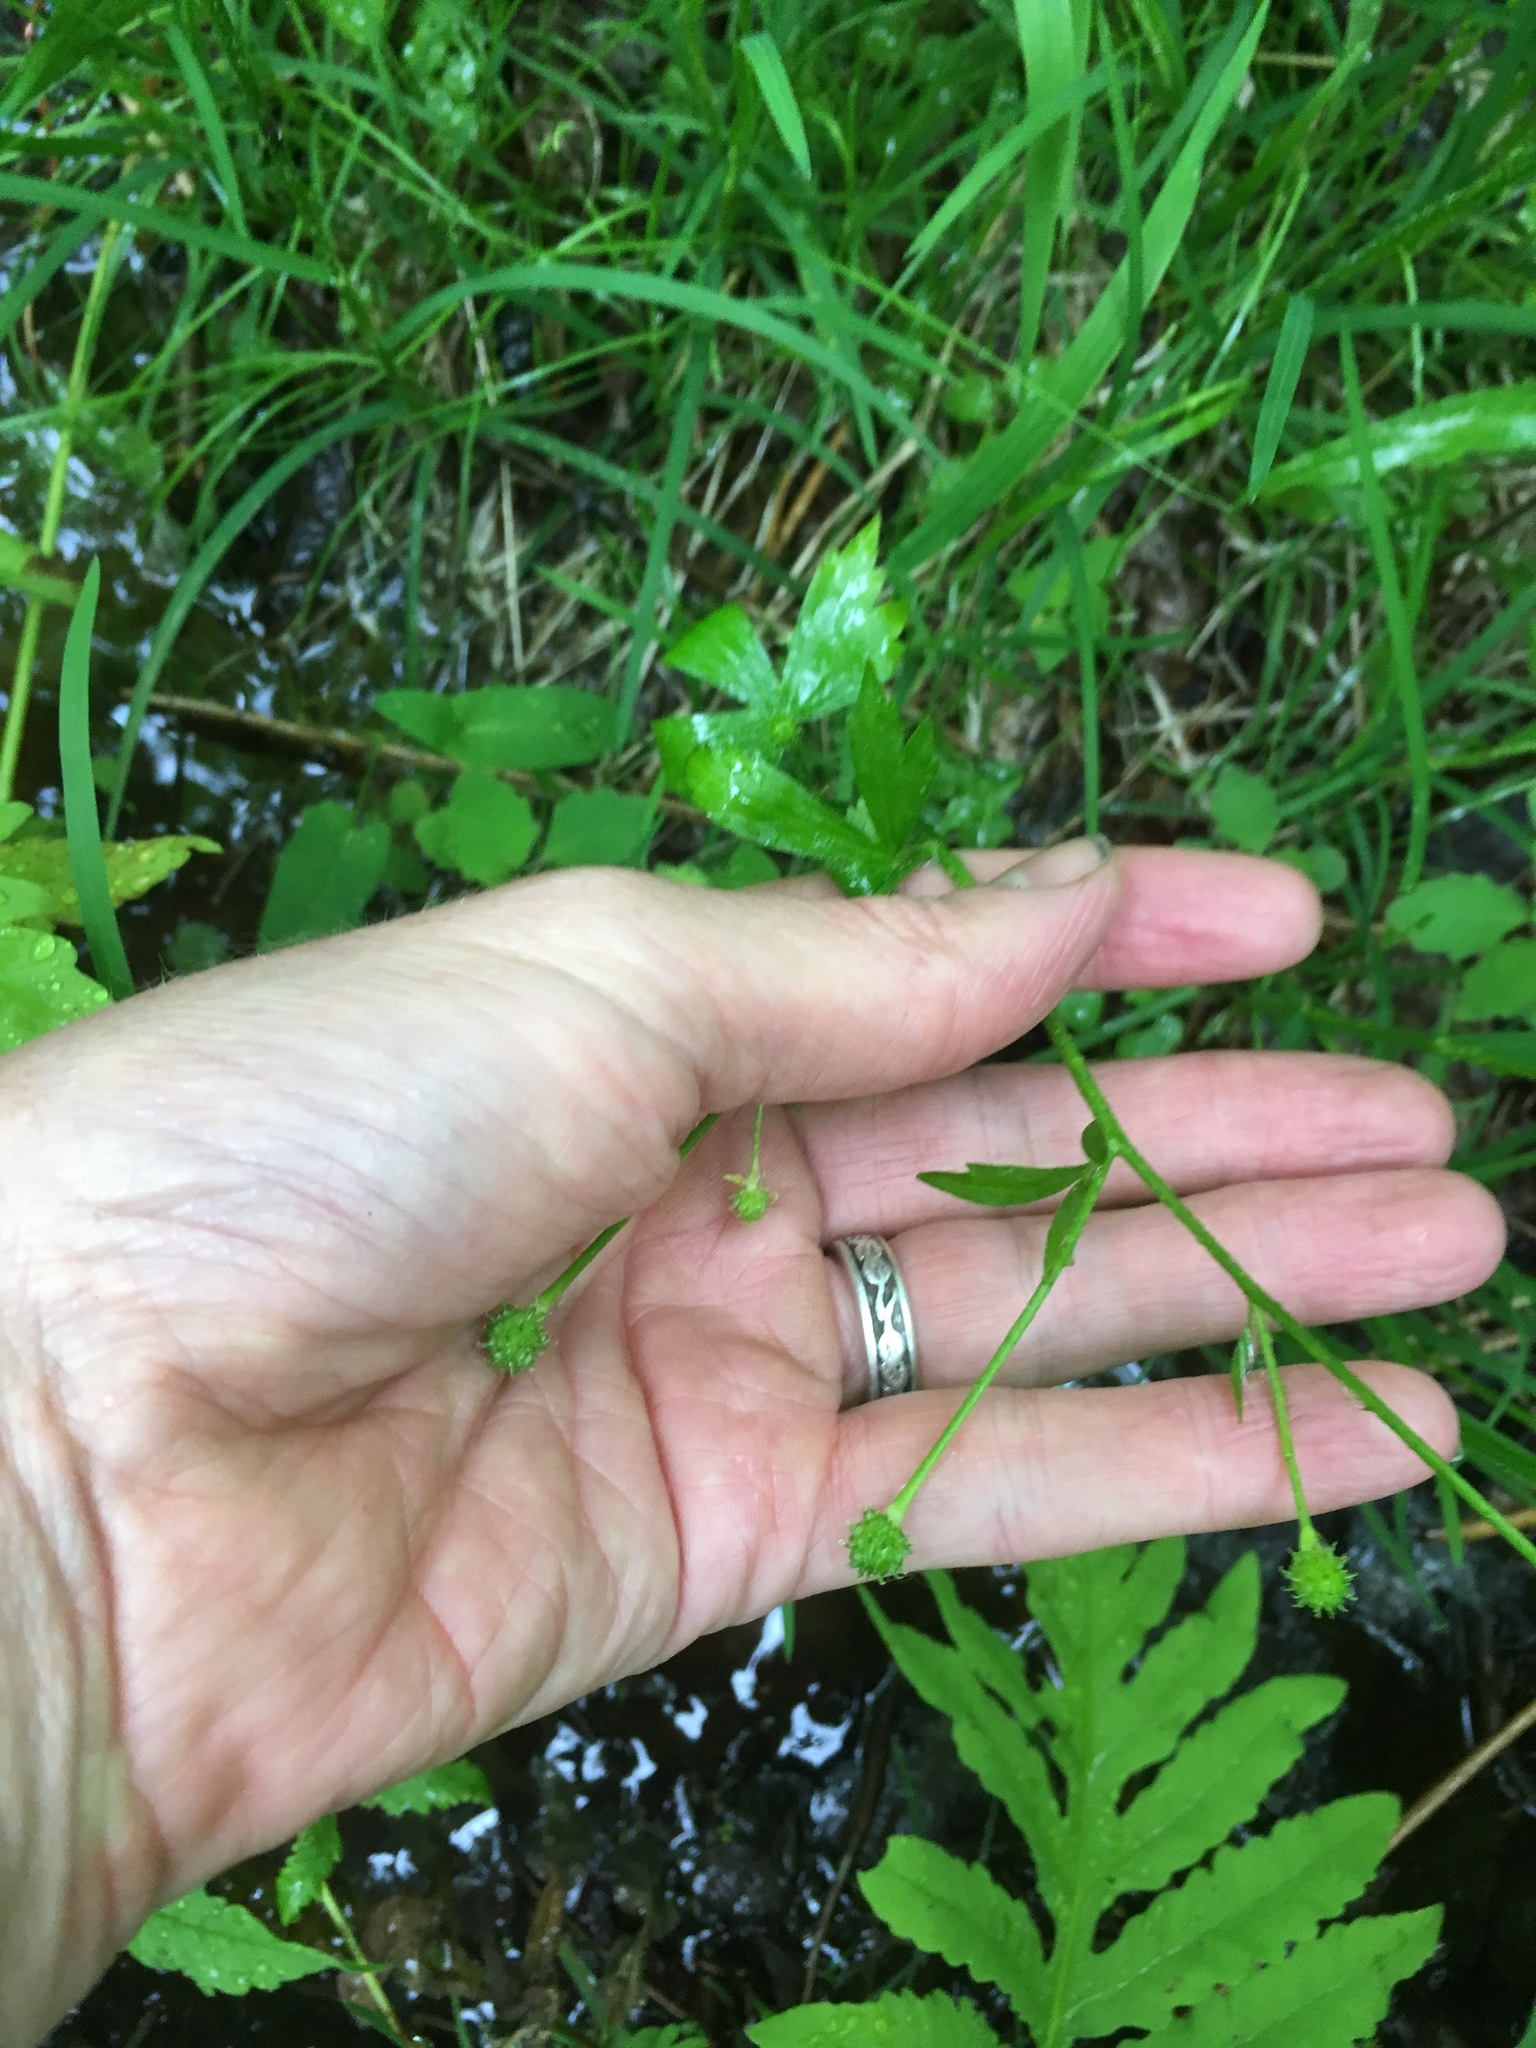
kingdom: Plantae
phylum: Tracheophyta
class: Magnoliopsida
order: Ranunculales
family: Ranunculaceae
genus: Ranunculus
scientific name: Ranunculus recurvatus
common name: Blisterwort
